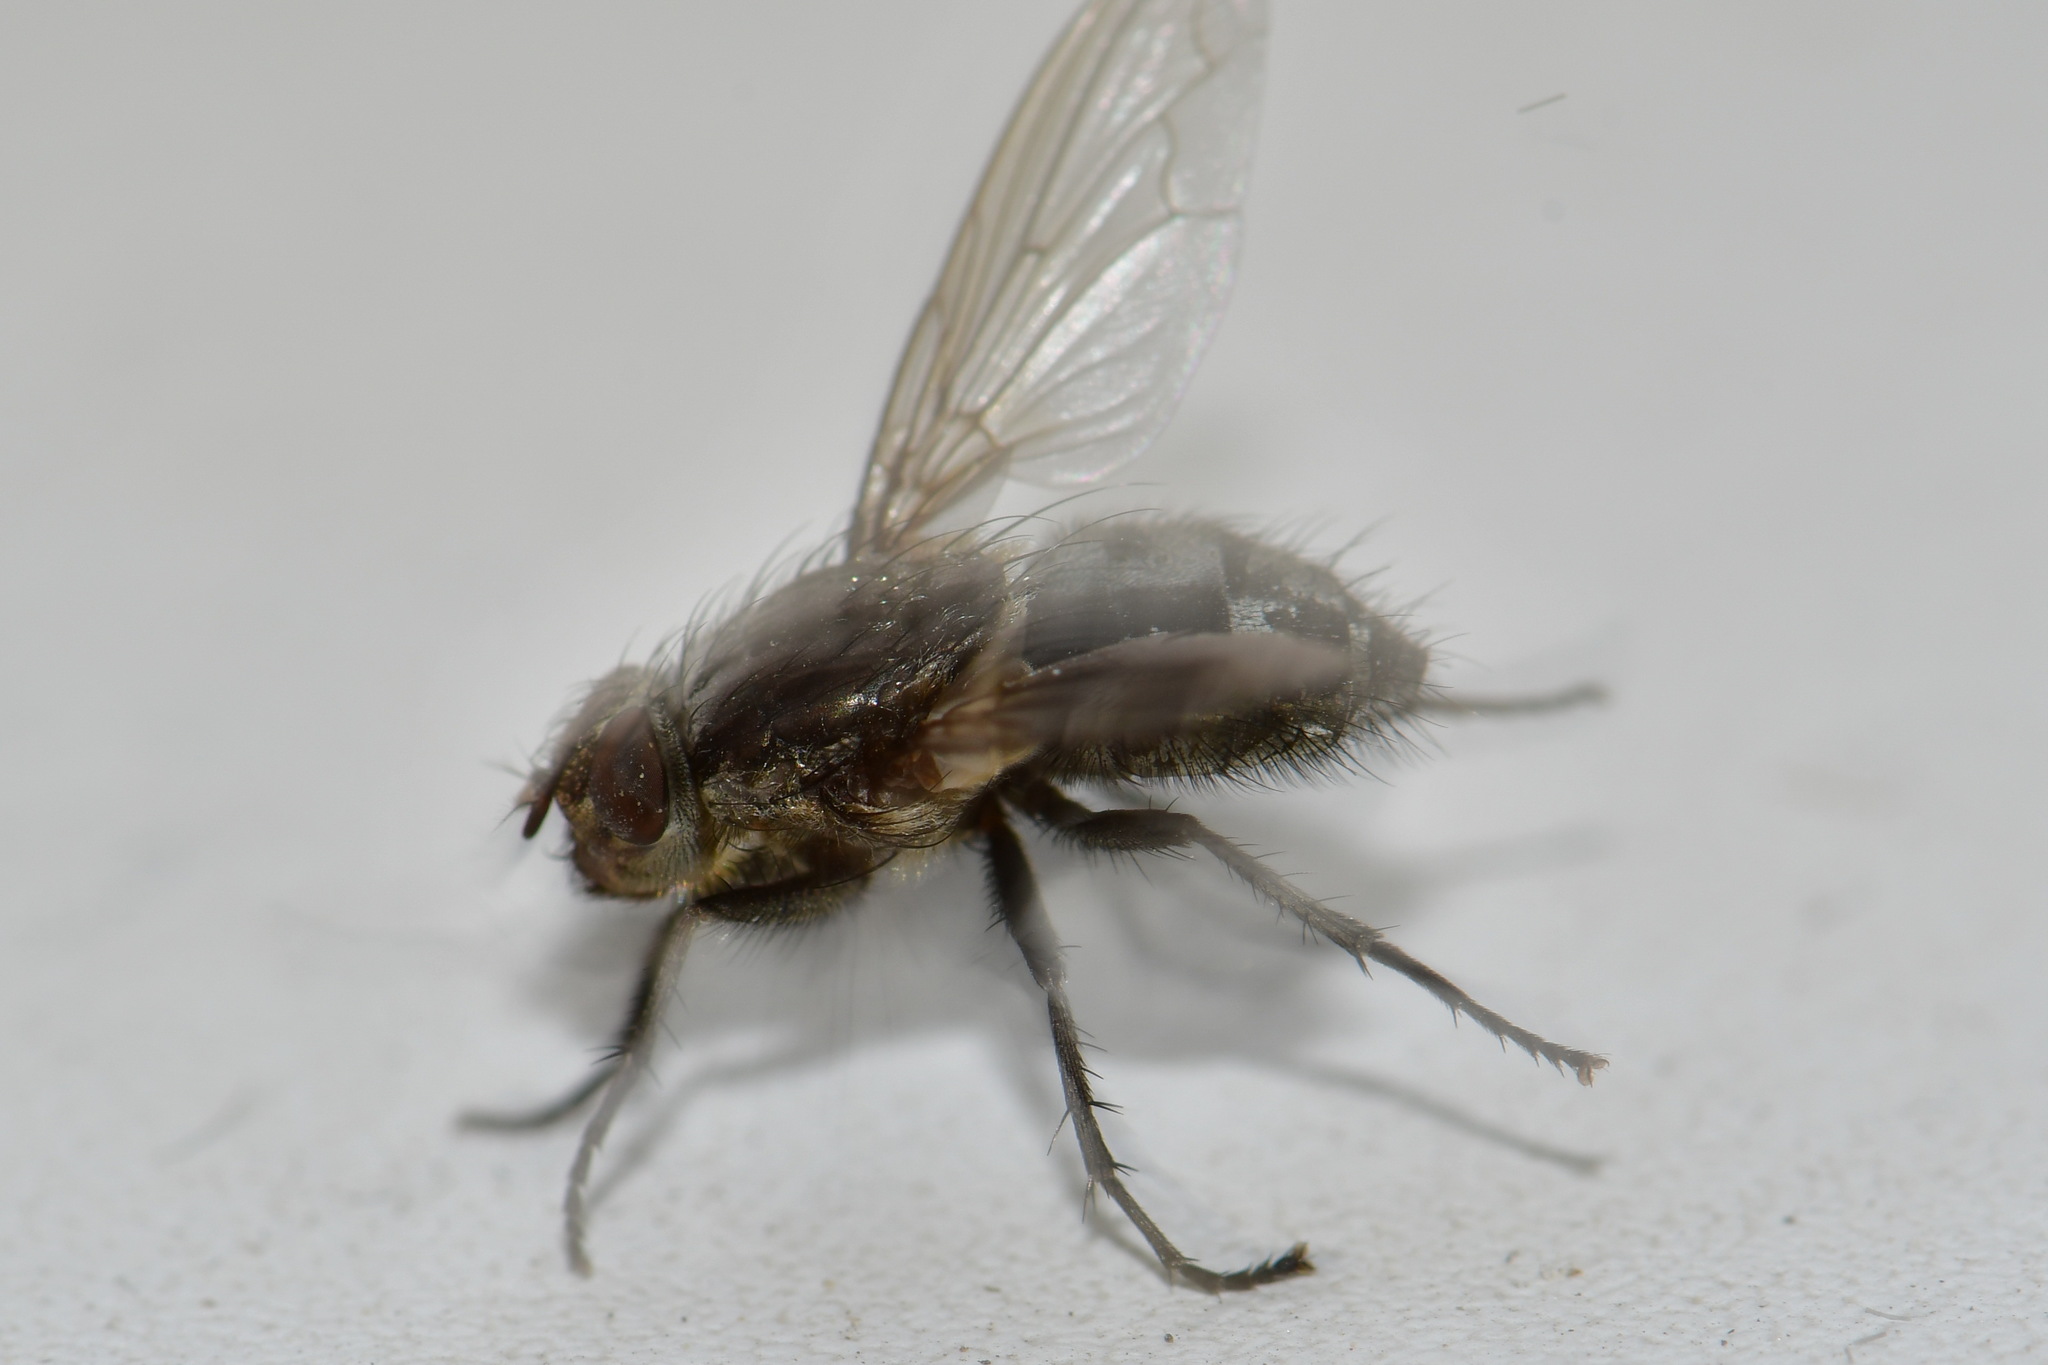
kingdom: Animalia
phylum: Arthropoda
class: Insecta
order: Diptera
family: Polleniidae
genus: Pollenia
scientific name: Pollenia vagabunda
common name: Vagabund cluster fly
